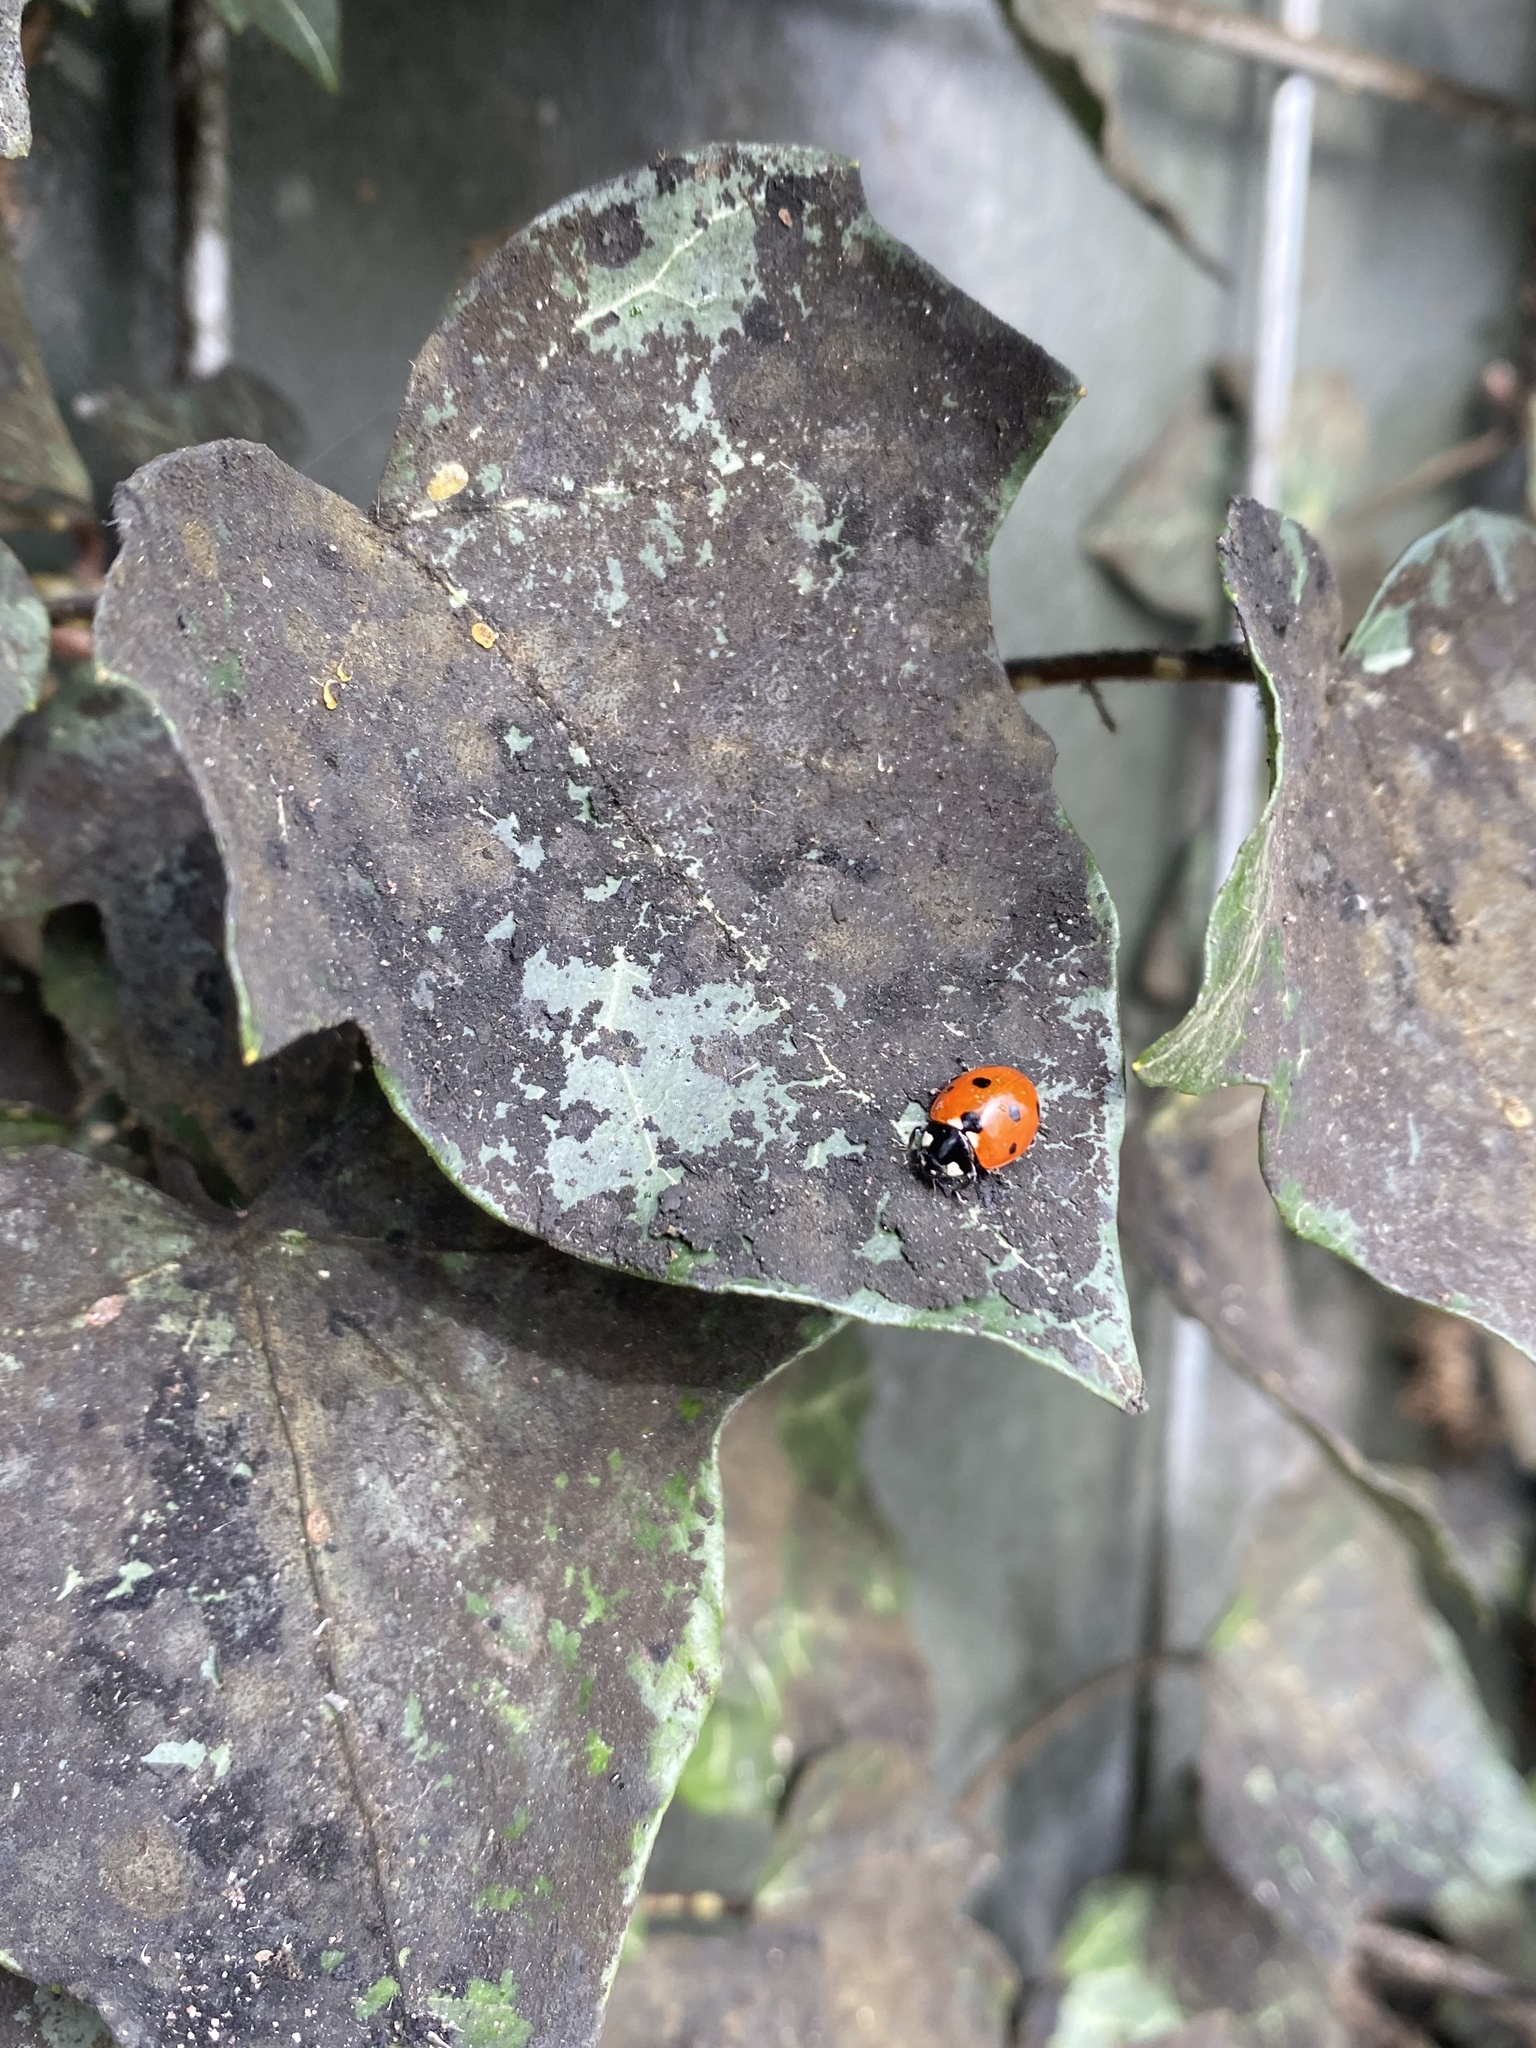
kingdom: Animalia
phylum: Arthropoda
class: Insecta
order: Coleoptera
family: Coccinellidae
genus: Coccinella
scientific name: Coccinella septempunctata
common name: Sevenspotted lady beetle
